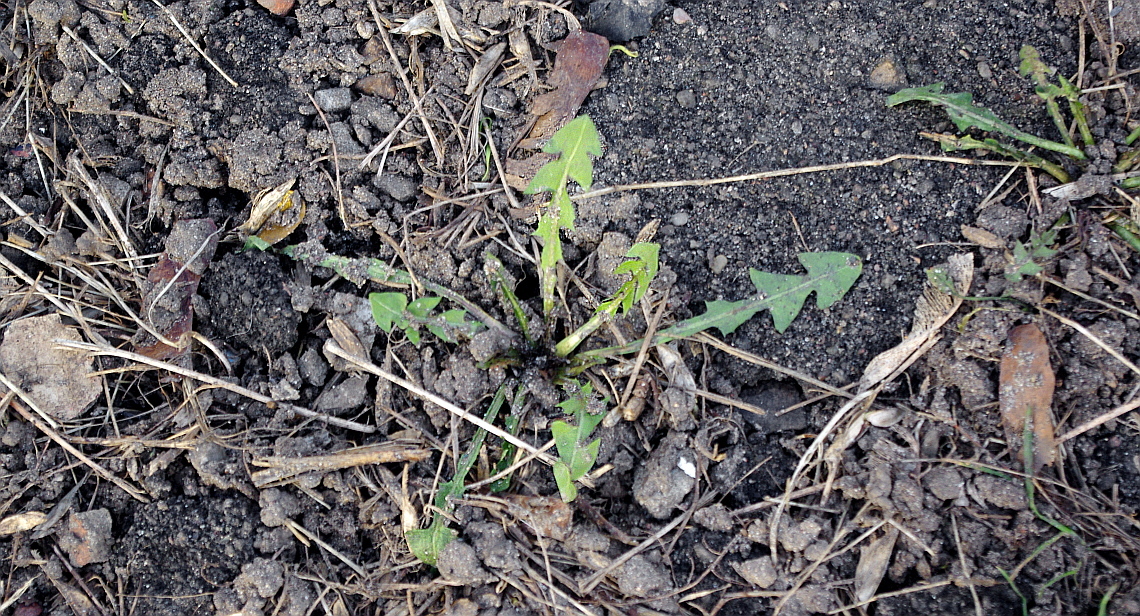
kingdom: Plantae
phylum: Tracheophyta
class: Magnoliopsida
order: Asterales
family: Asteraceae
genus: Taraxacum
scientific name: Taraxacum officinale
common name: Common dandelion
